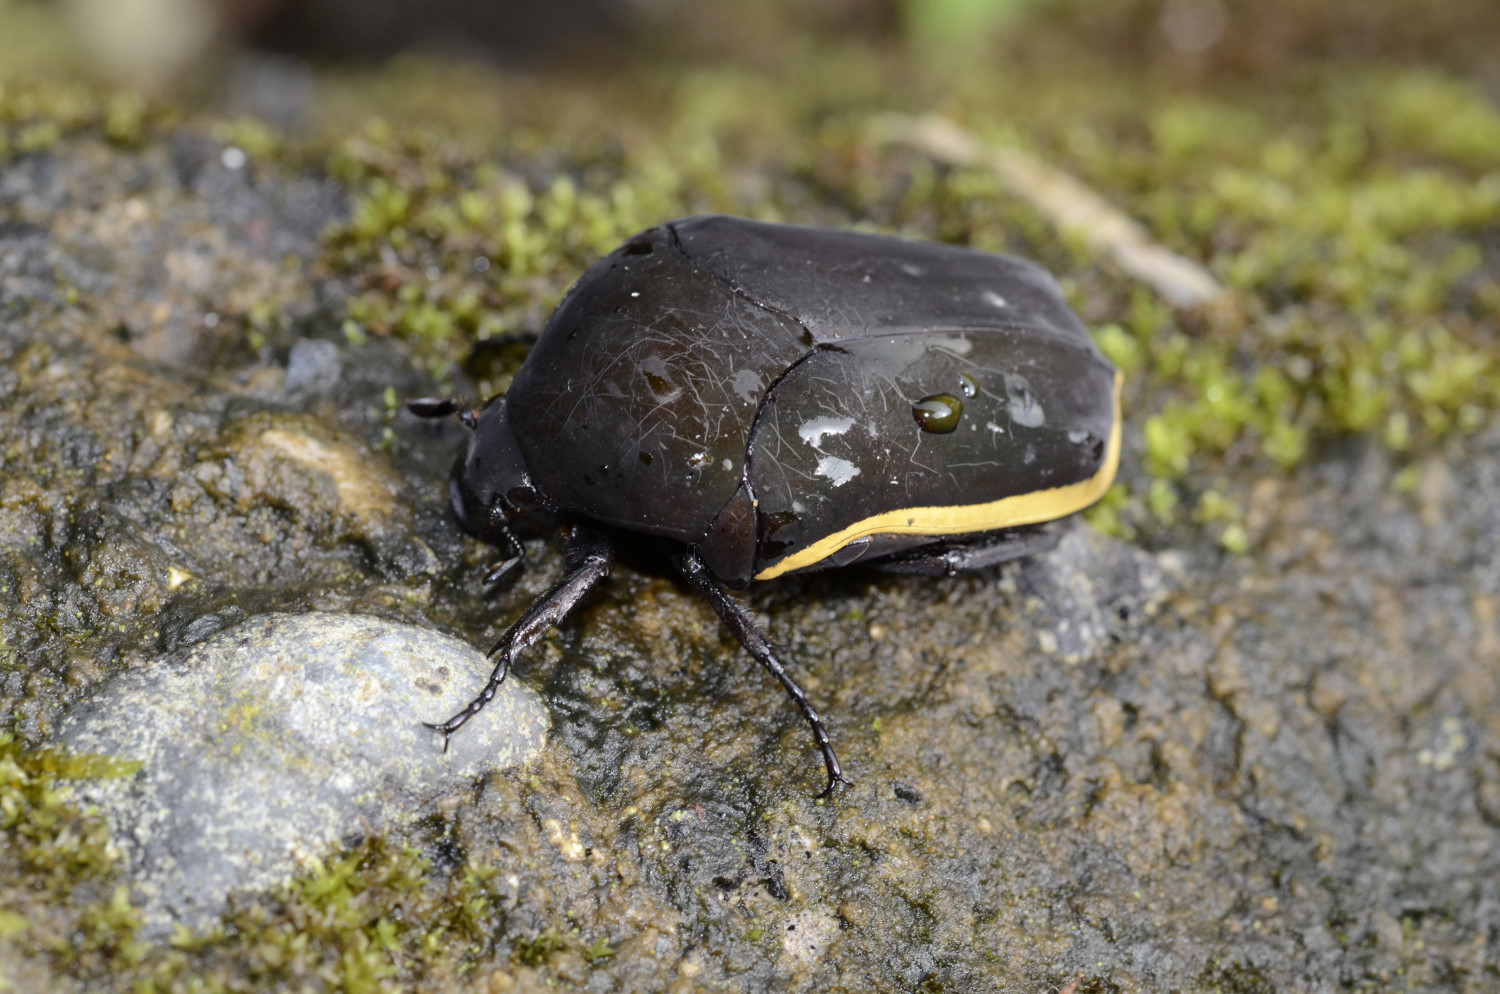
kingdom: Animalia
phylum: Arthropoda
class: Insecta
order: Coleoptera
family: Scarabaeidae
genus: Gymnetis
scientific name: Gymnetis flavocincta
